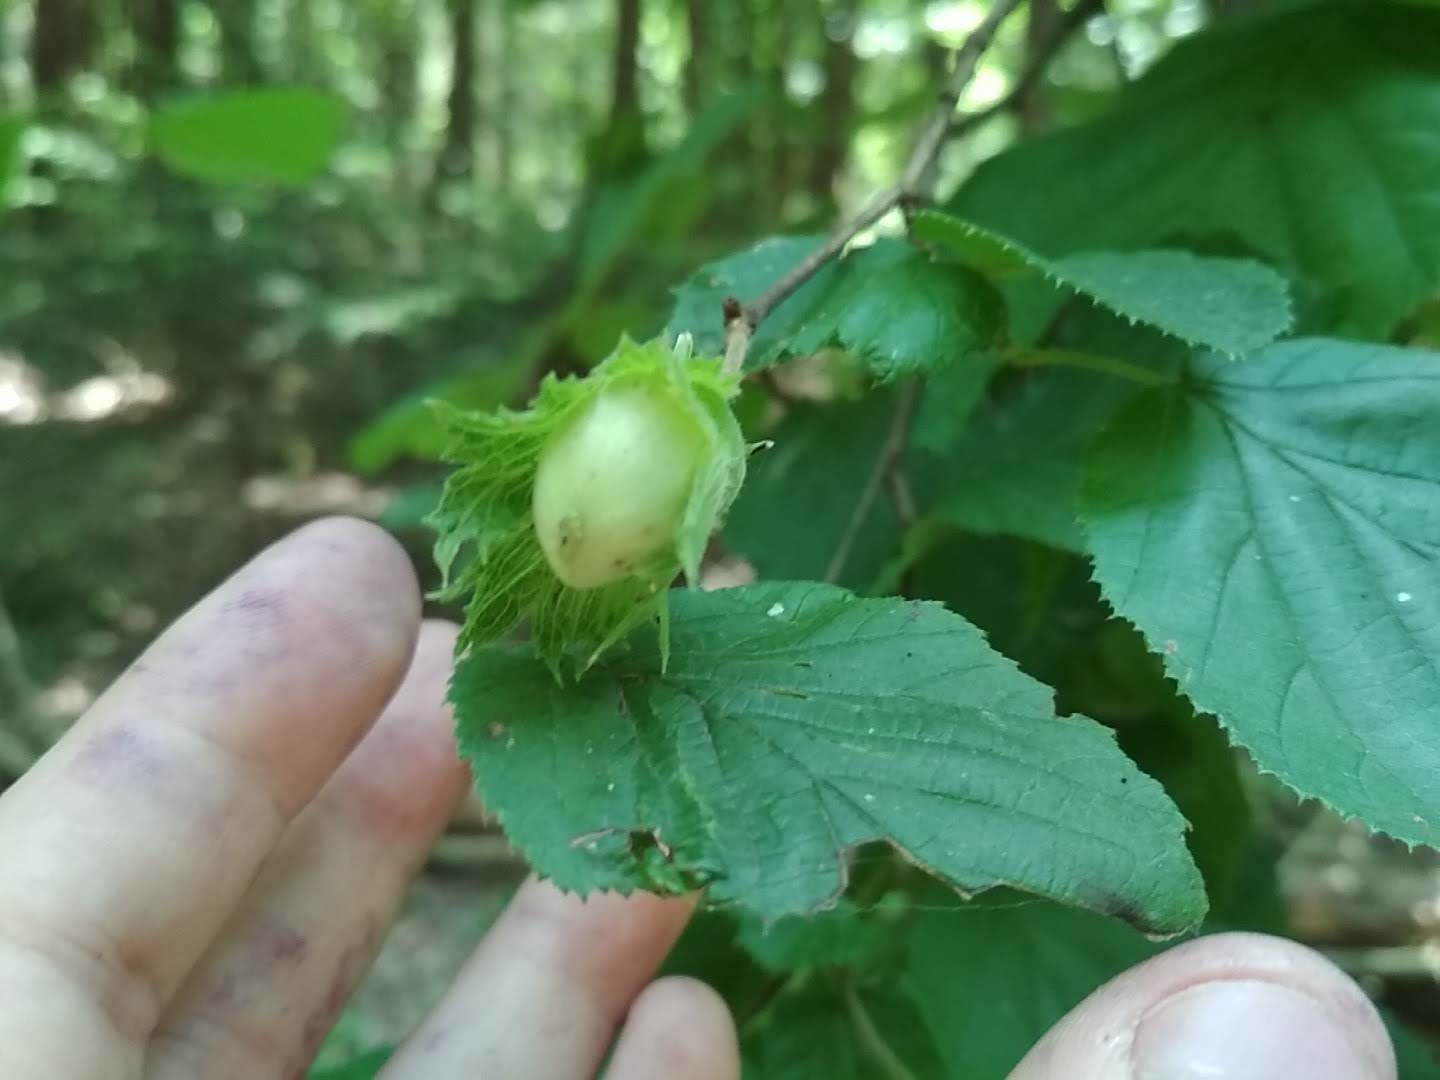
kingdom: Plantae
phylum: Tracheophyta
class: Magnoliopsida
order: Fagales
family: Betulaceae
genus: Corylus
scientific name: Corylus avellana
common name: European hazel
